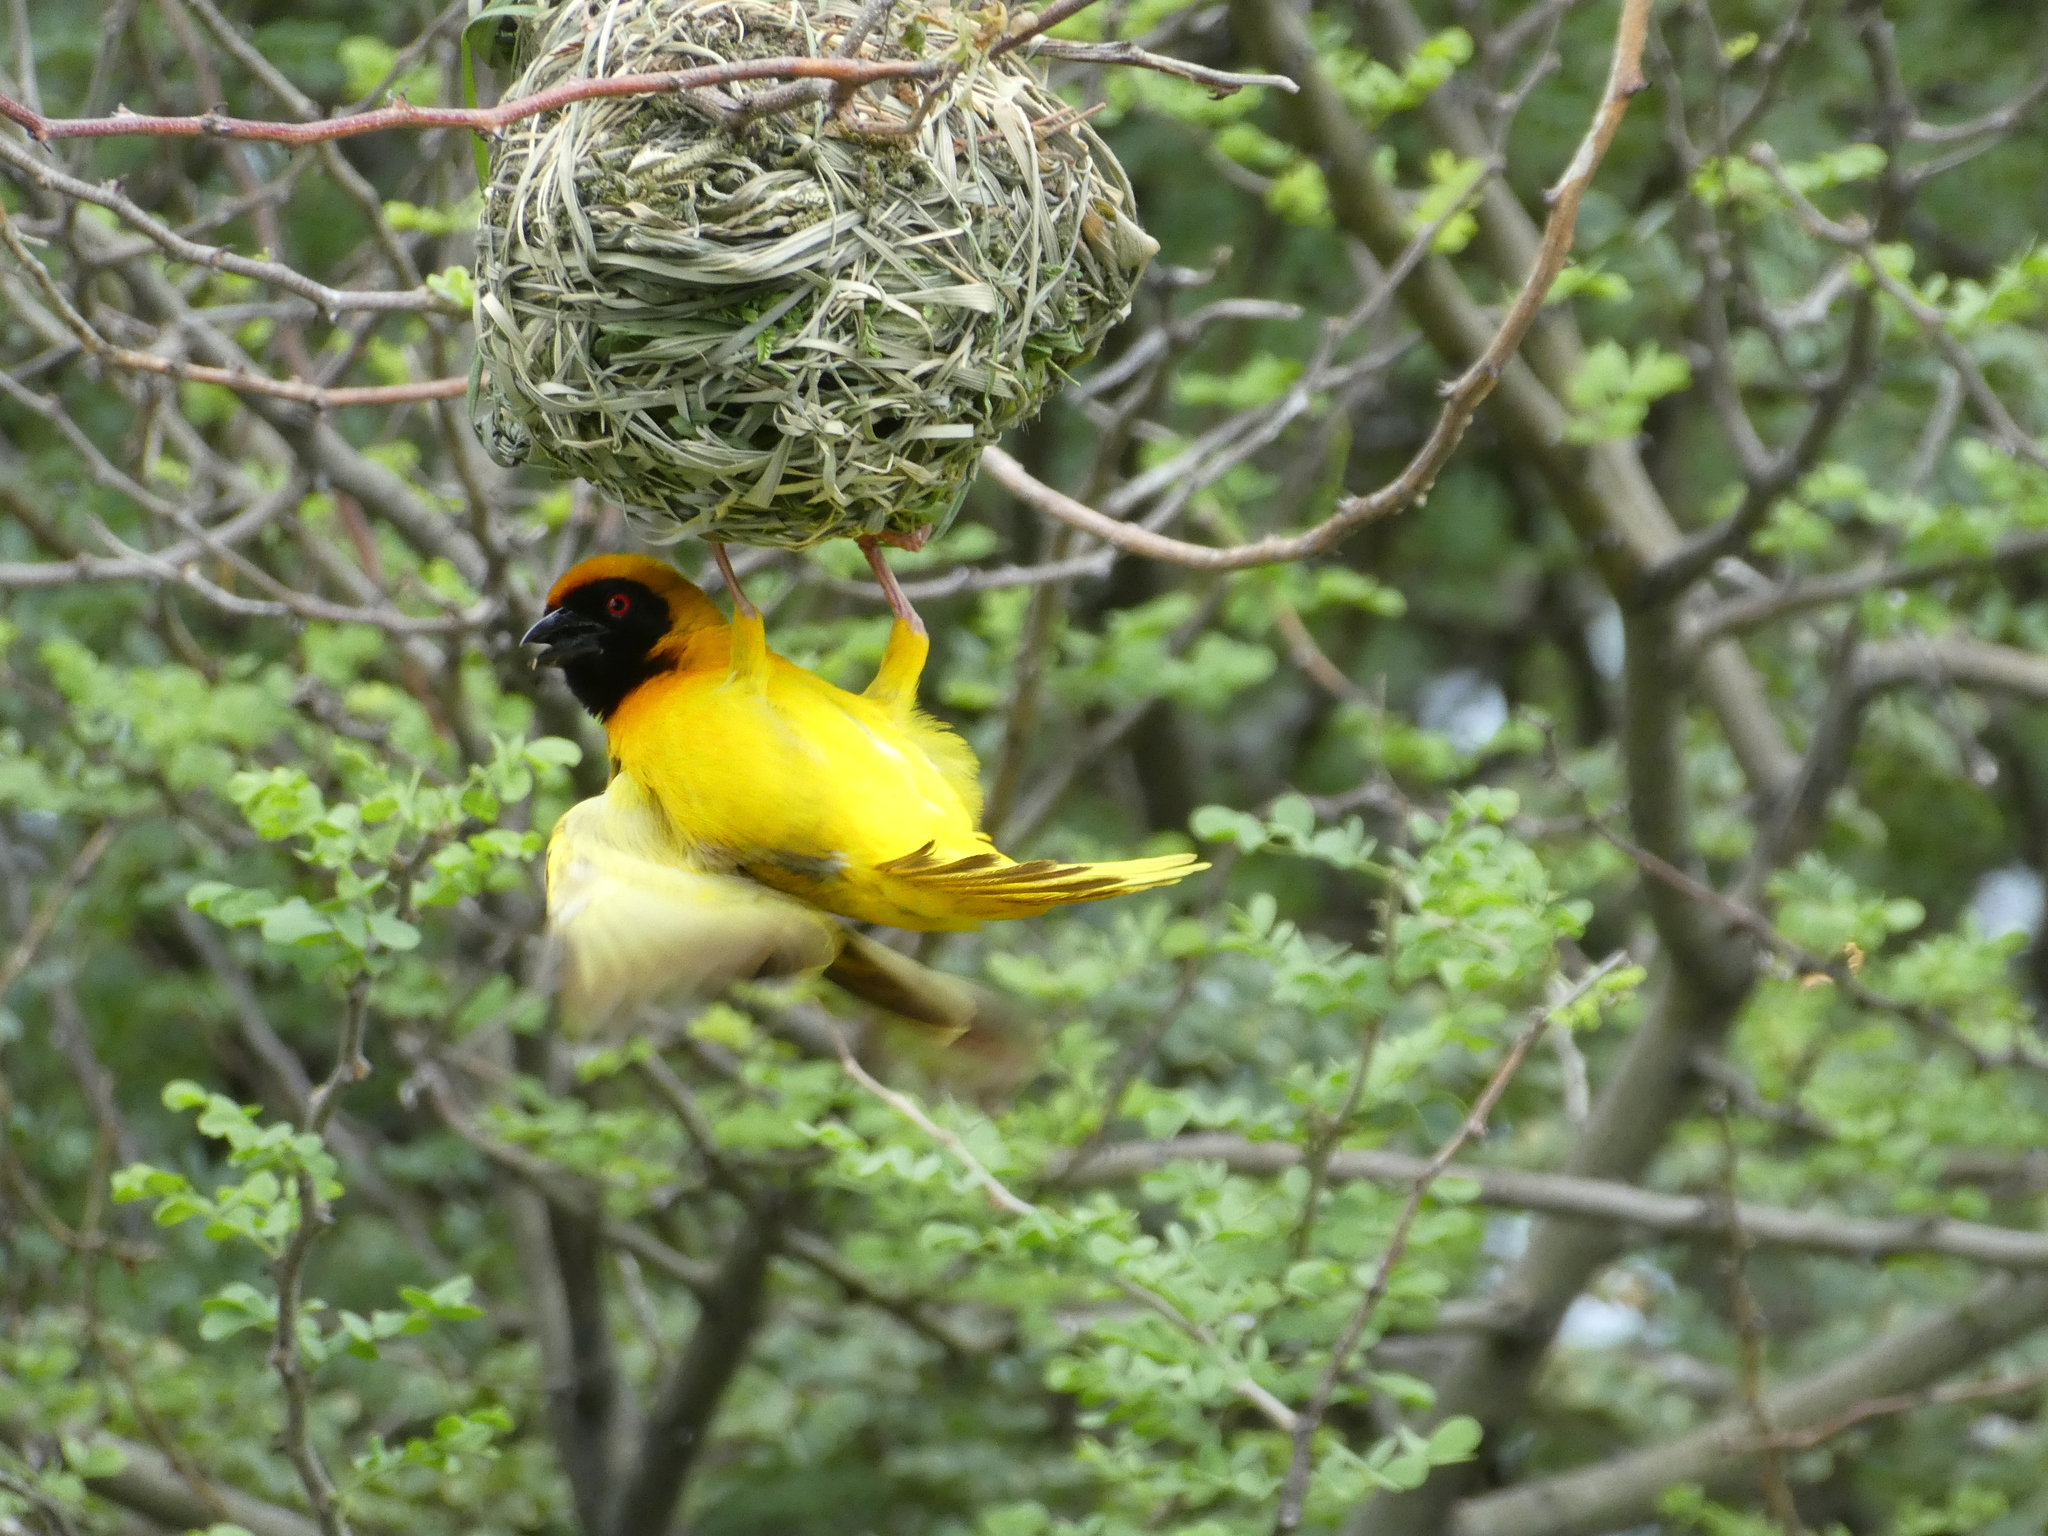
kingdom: Animalia
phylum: Chordata
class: Aves
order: Passeriformes
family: Ploceidae
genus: Ploceus
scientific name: Ploceus velatus
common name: Southern masked weaver
